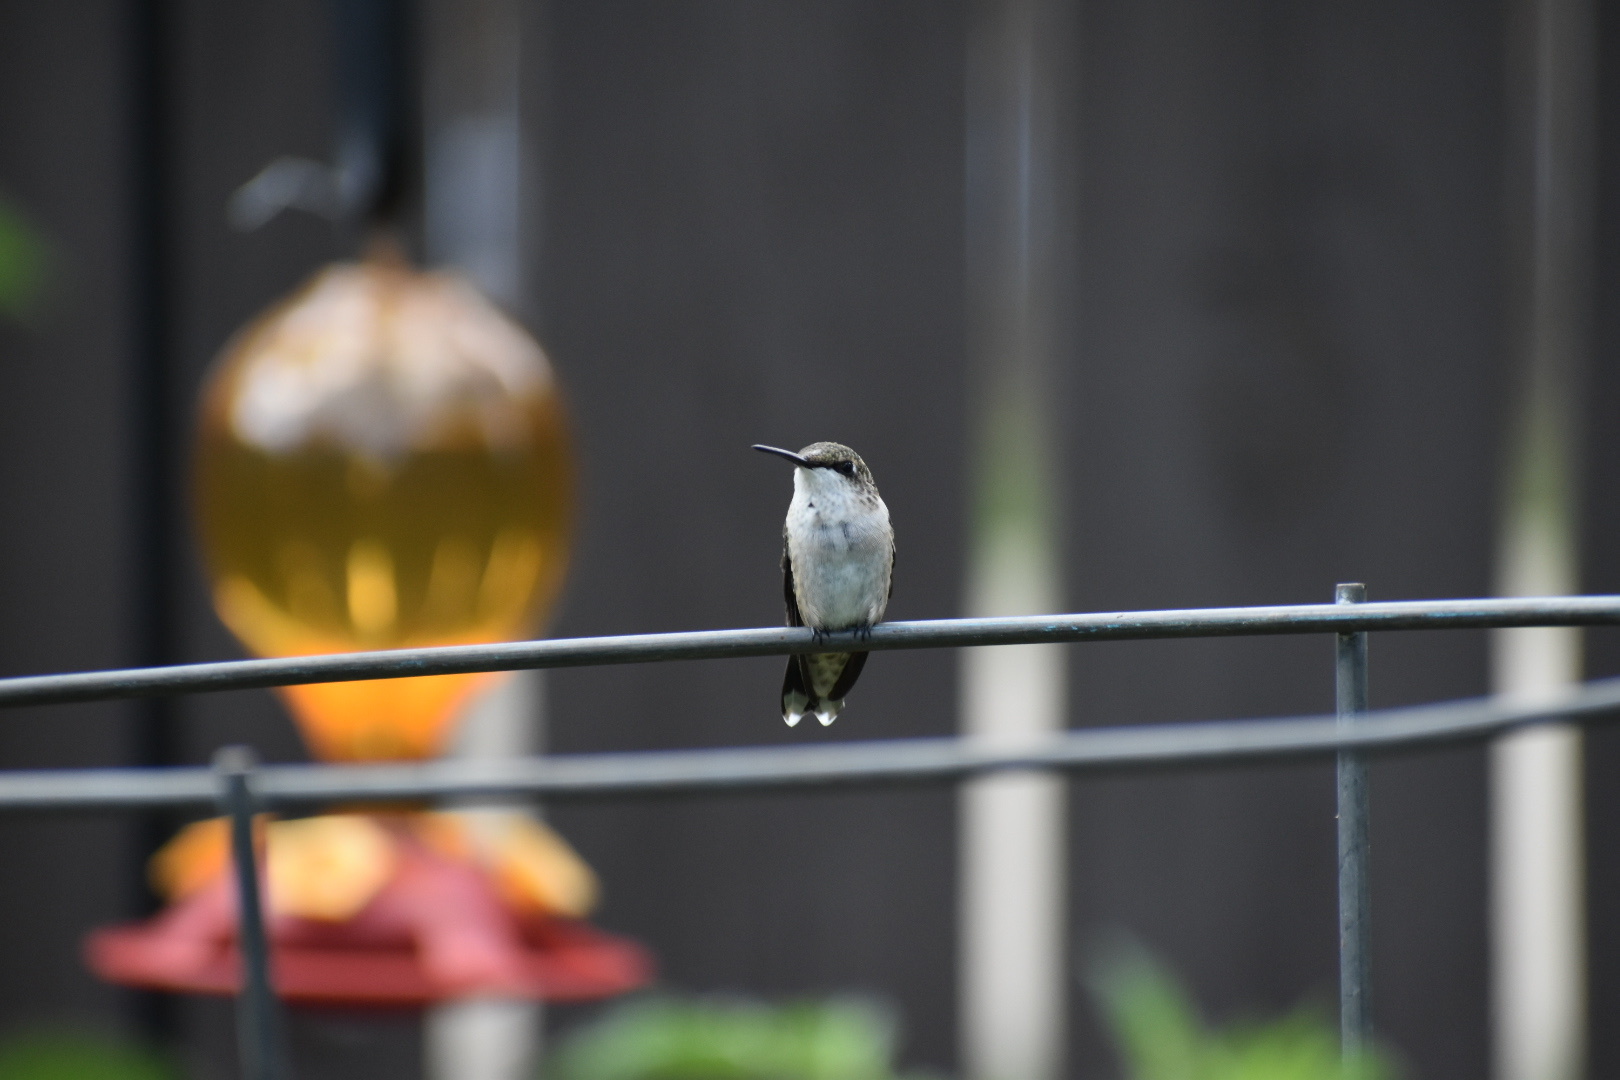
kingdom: Animalia
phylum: Chordata
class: Aves
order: Apodiformes
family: Trochilidae
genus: Archilochus
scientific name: Archilochus colubris
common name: Ruby-throated hummingbird
